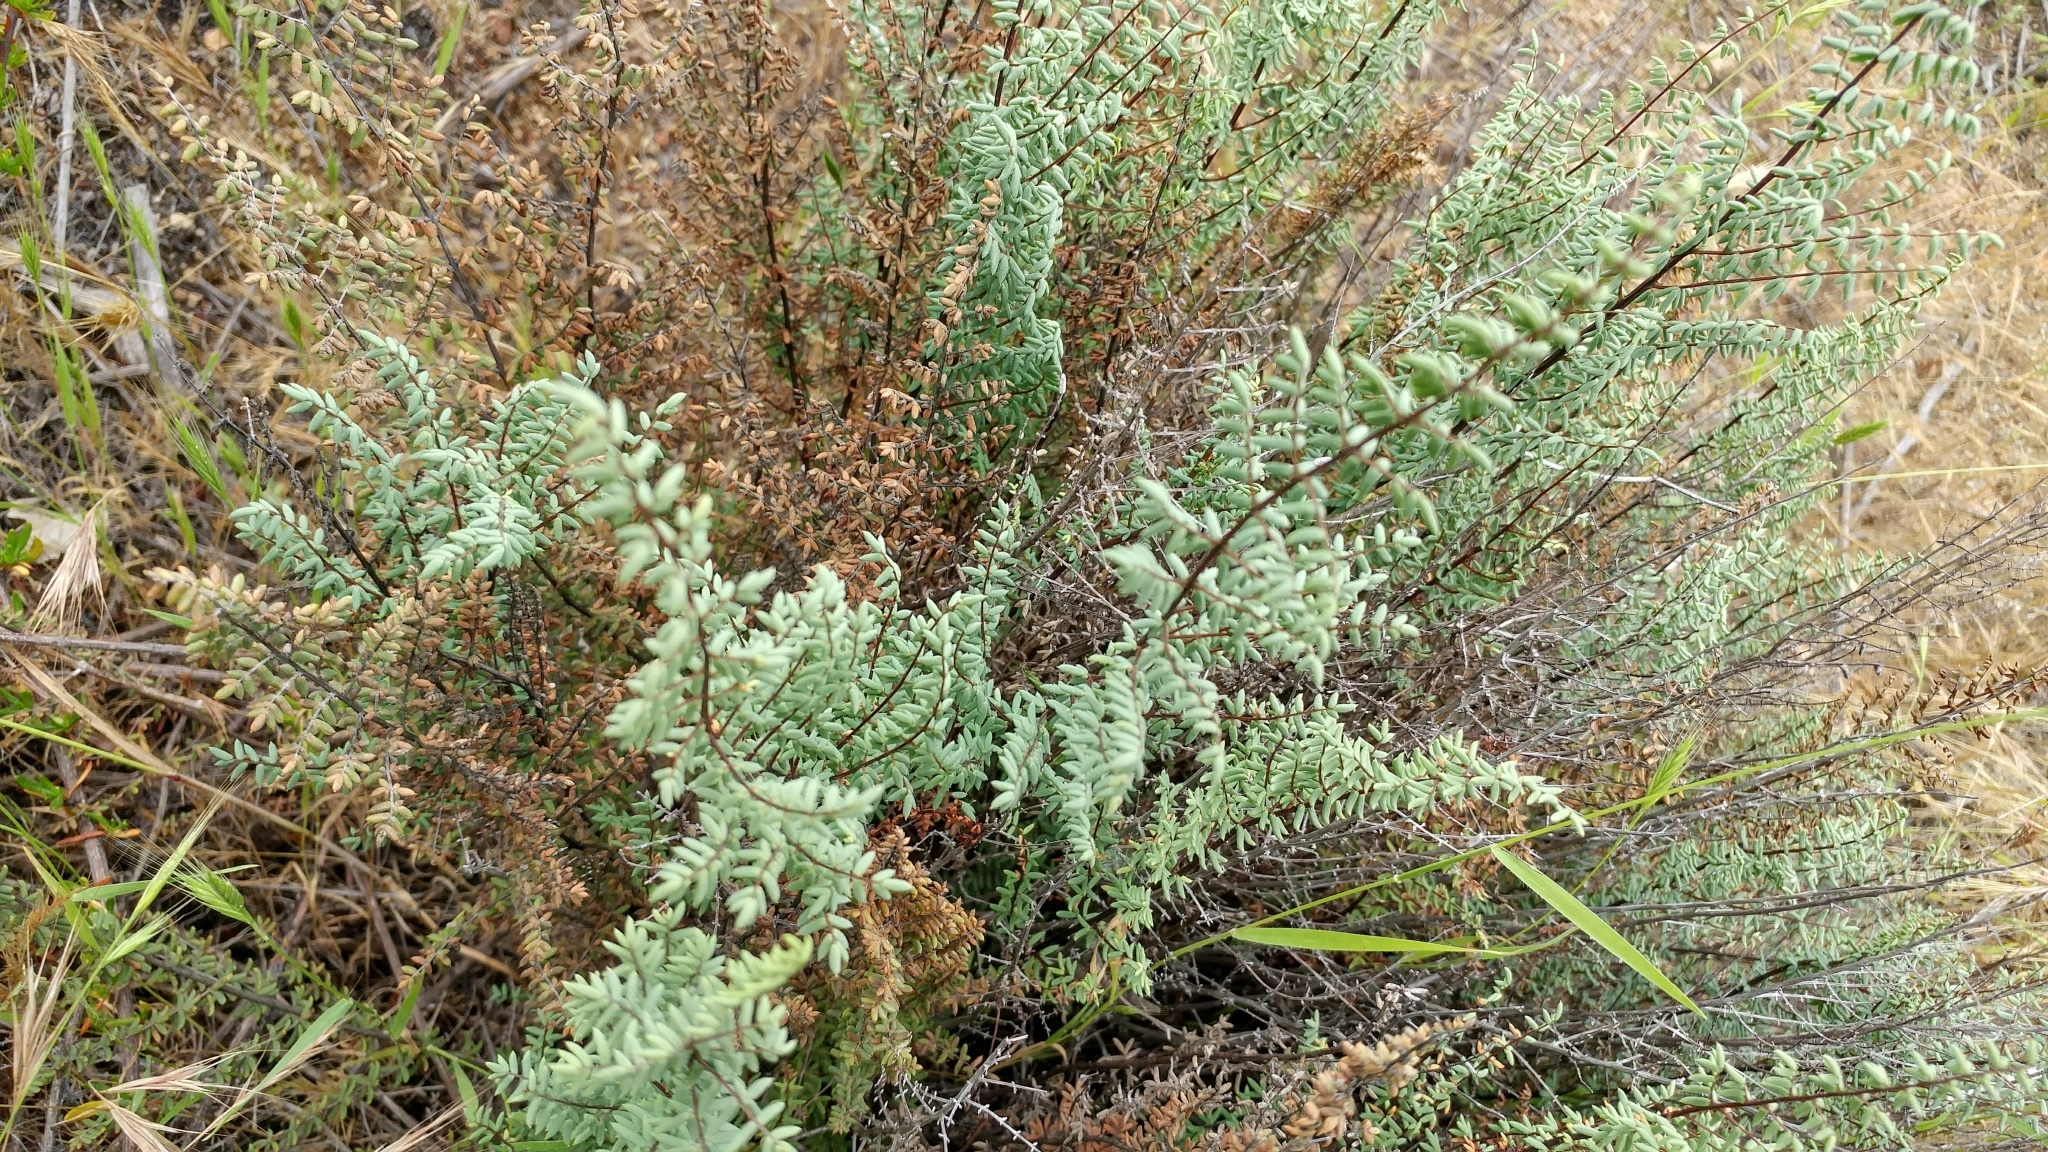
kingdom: Plantae
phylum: Tracheophyta
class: Polypodiopsida
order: Polypodiales
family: Pteridaceae
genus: Pellaea
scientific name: Pellaea mucronata
